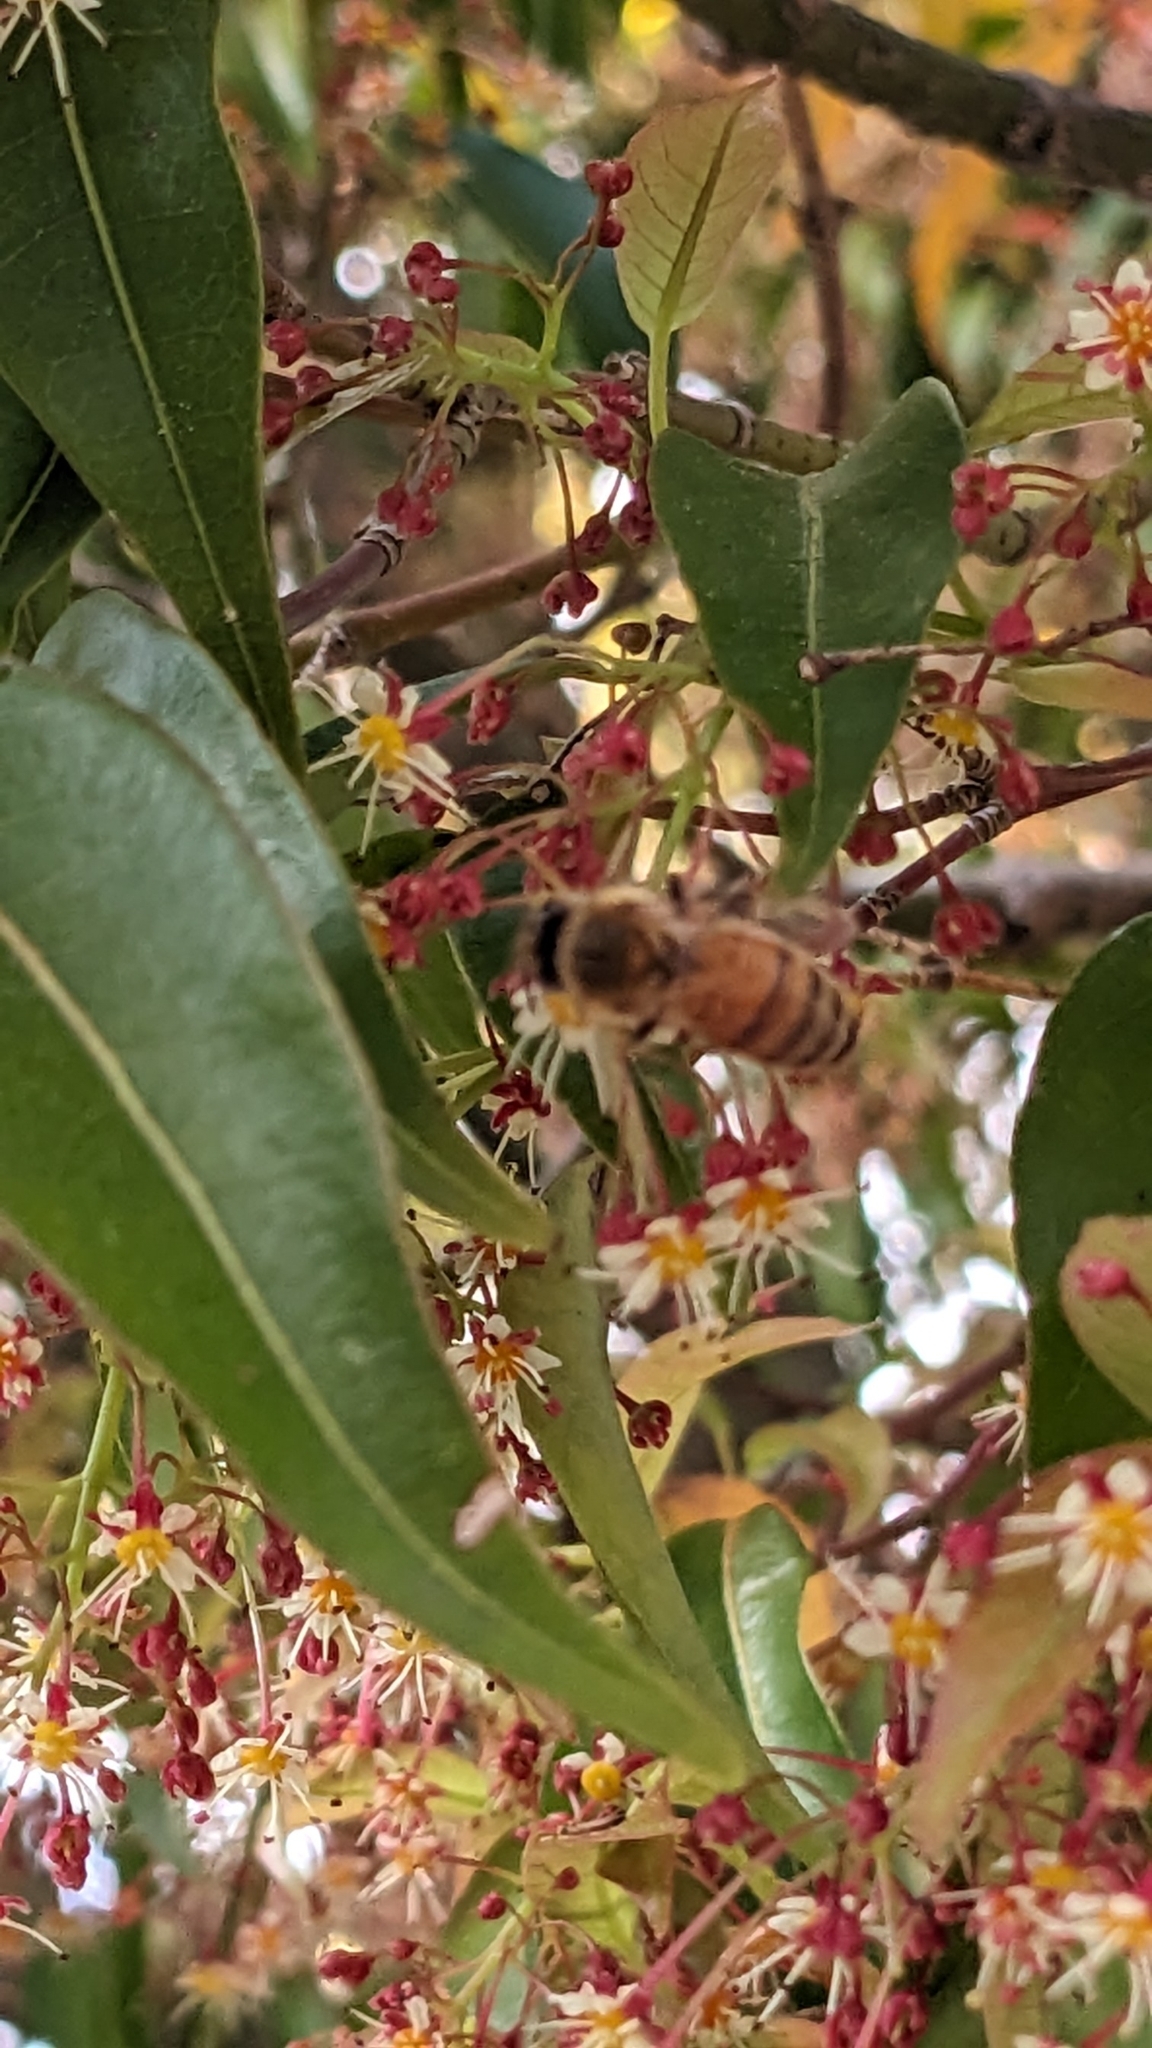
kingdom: Animalia
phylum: Arthropoda
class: Insecta
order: Hymenoptera
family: Apidae
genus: Apis
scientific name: Apis mellifera
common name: Honey bee
